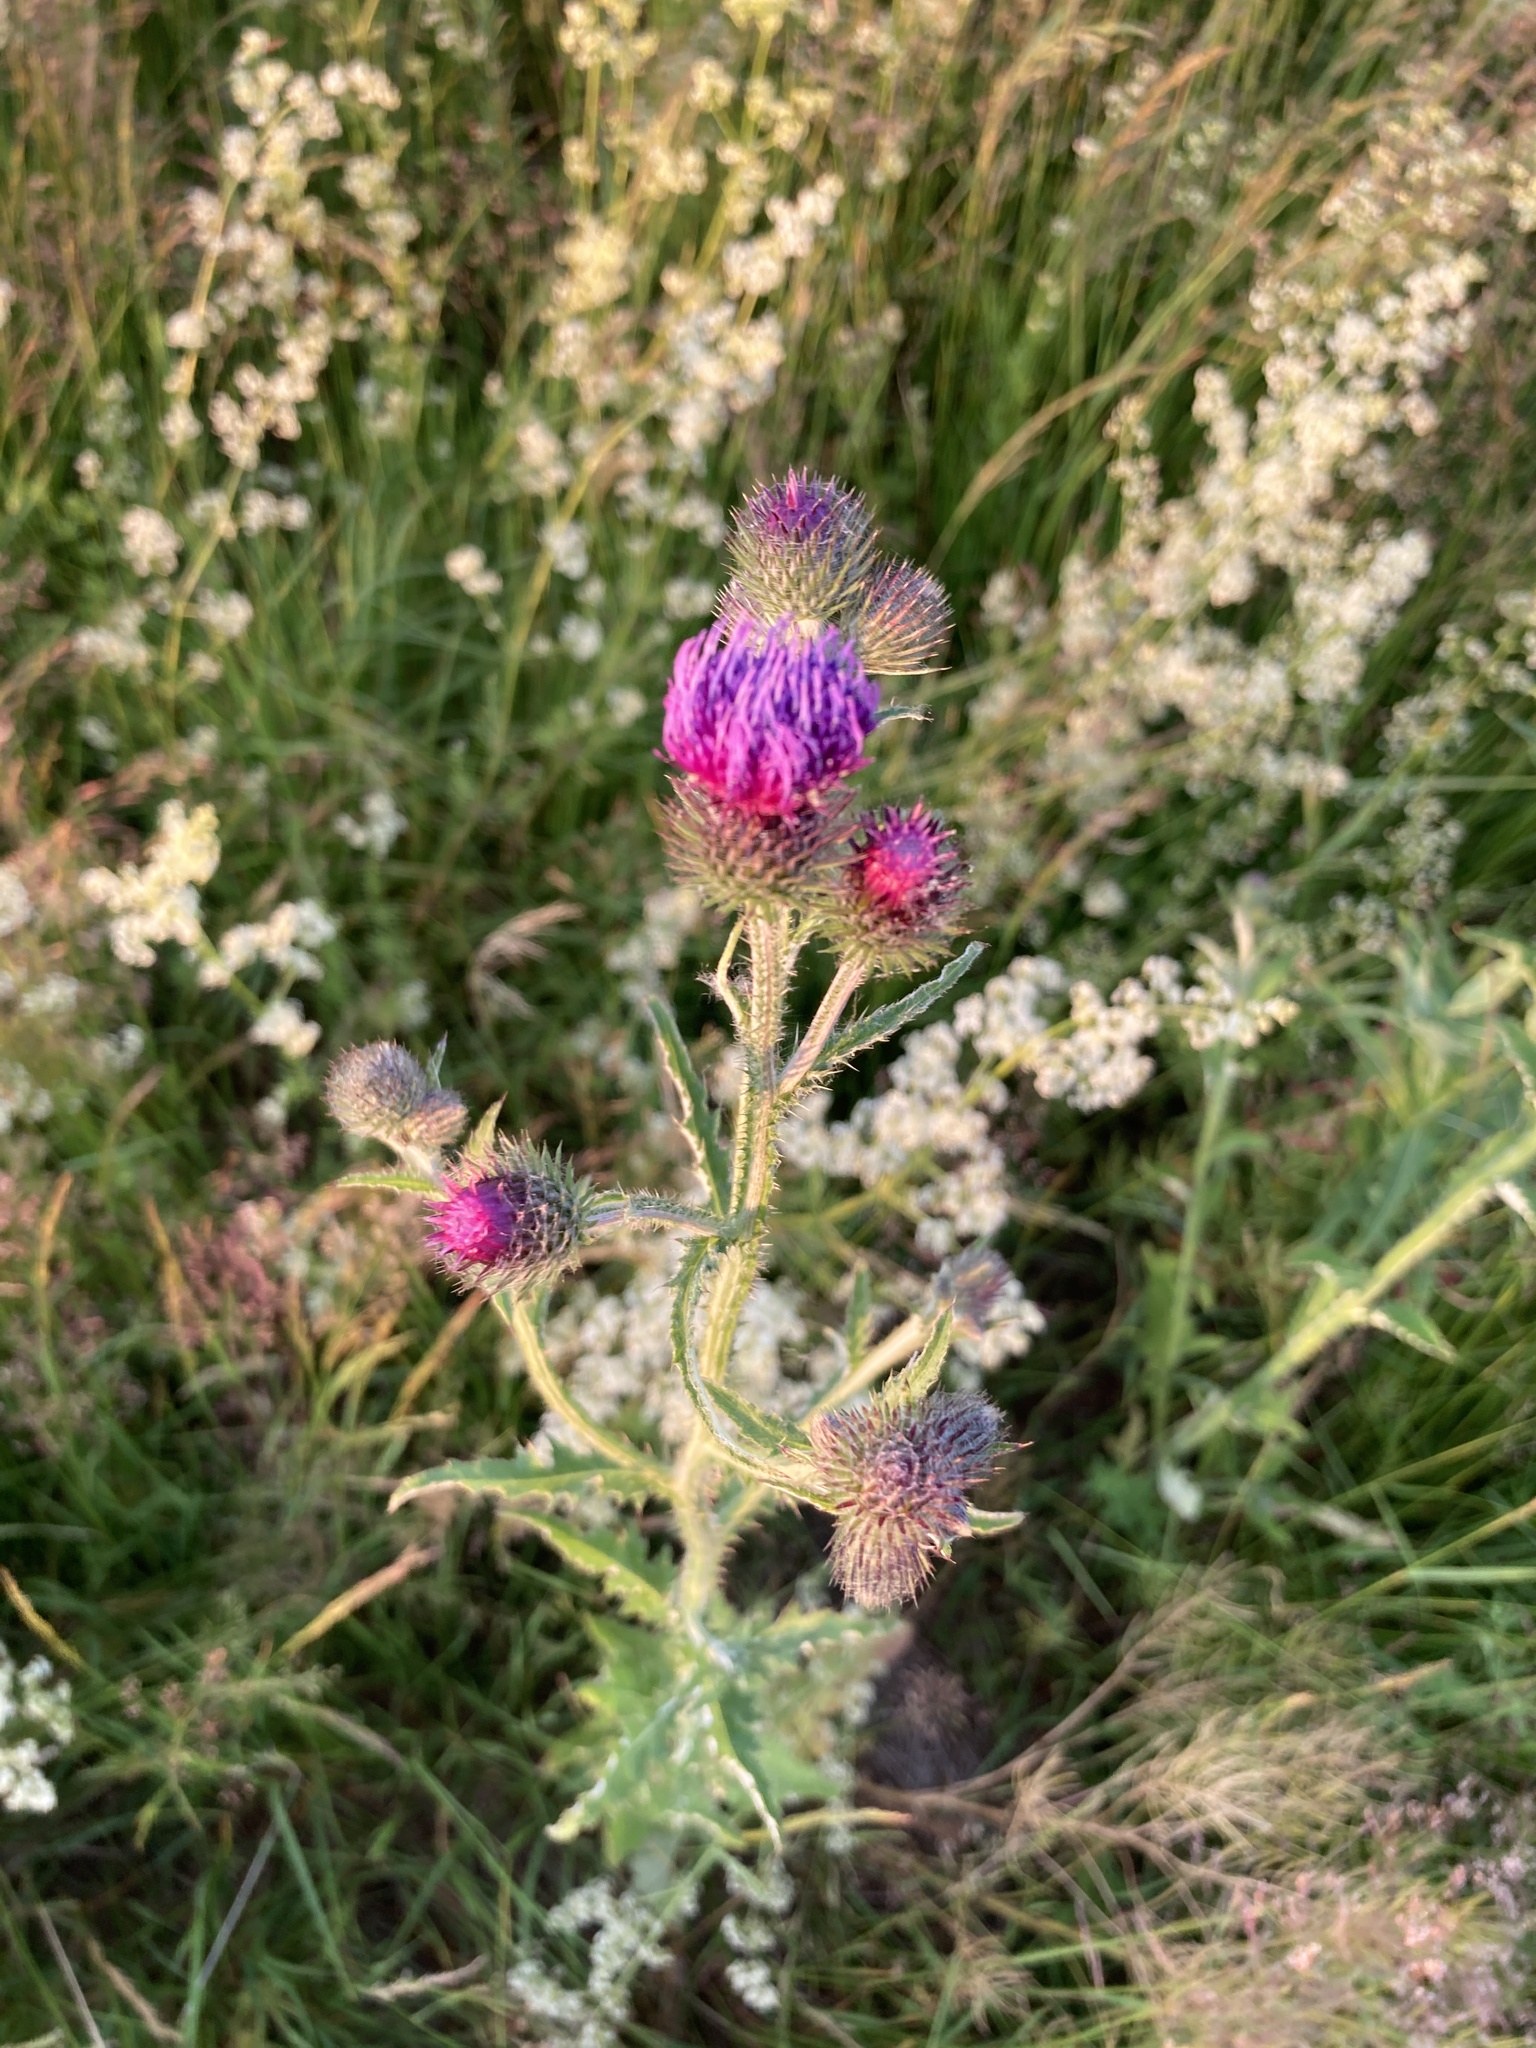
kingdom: Plantae
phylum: Tracheophyta
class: Magnoliopsida
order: Asterales
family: Asteraceae
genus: Carduus
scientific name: Carduus crispus
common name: Welted thistle
